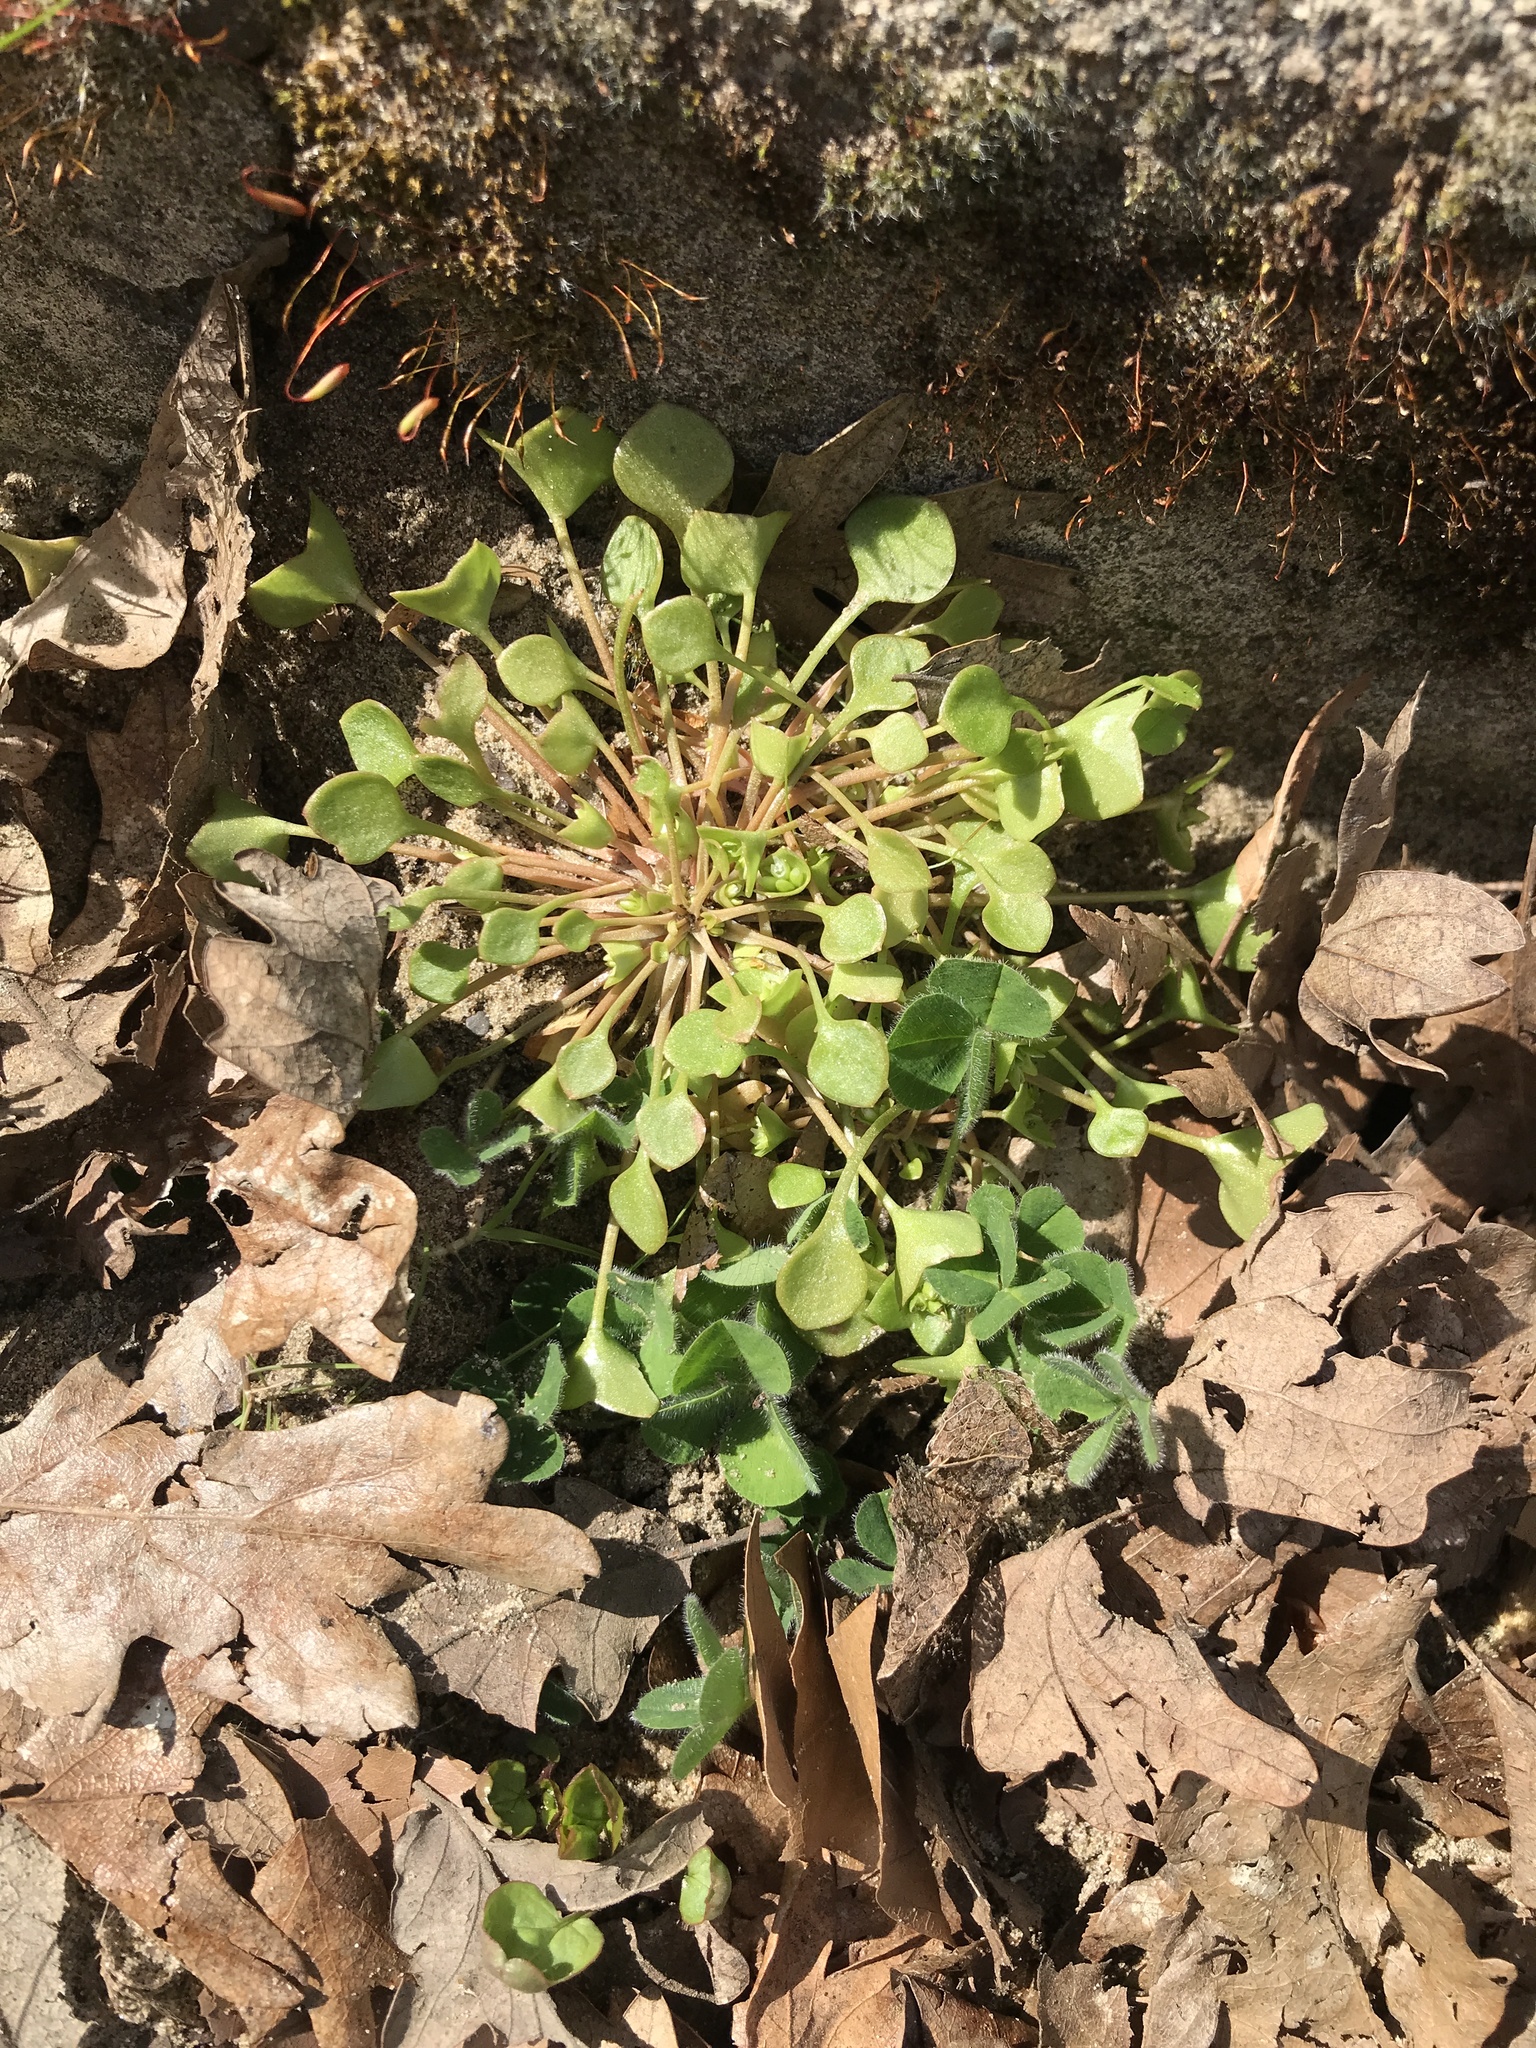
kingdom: Plantae
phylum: Tracheophyta
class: Magnoliopsida
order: Caryophyllales
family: Montiaceae
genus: Claytonia
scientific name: Claytonia rubra
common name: Erubescent miner's-lettuce
